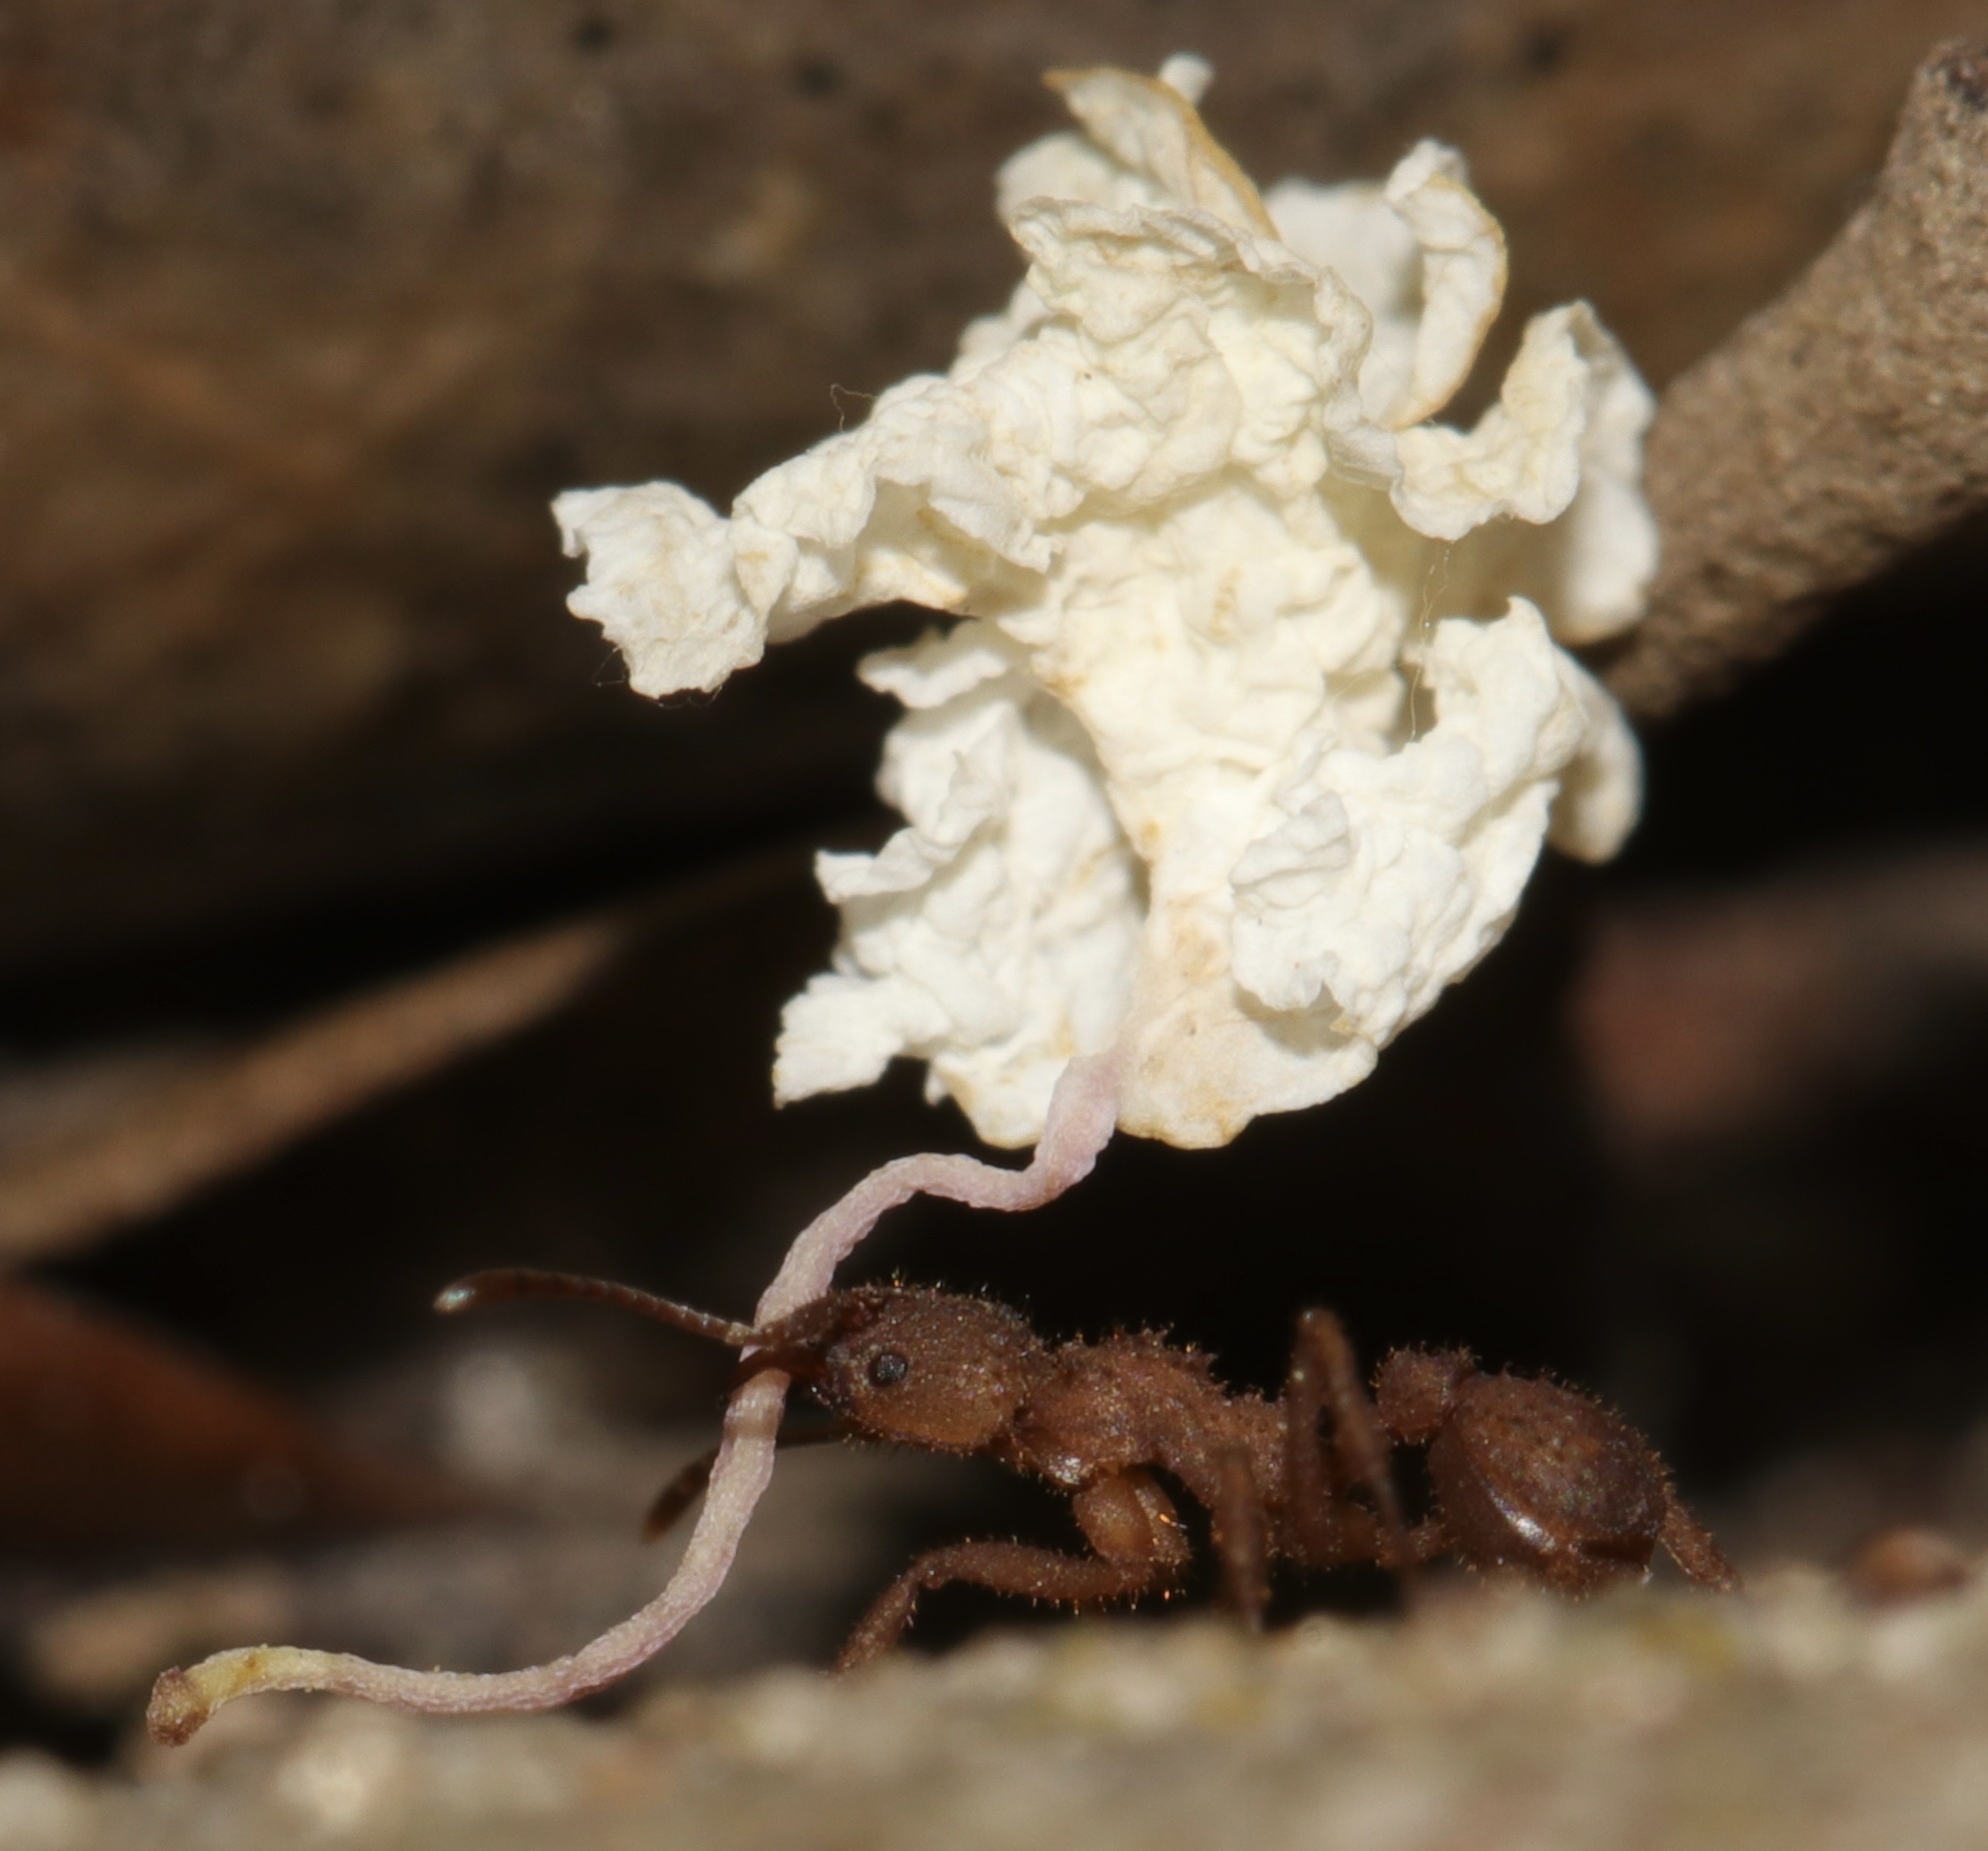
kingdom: Animalia
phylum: Arthropoda
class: Insecta
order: Hymenoptera
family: Formicidae
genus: Trachymyrmex
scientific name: Trachymyrmex septentrionalis
